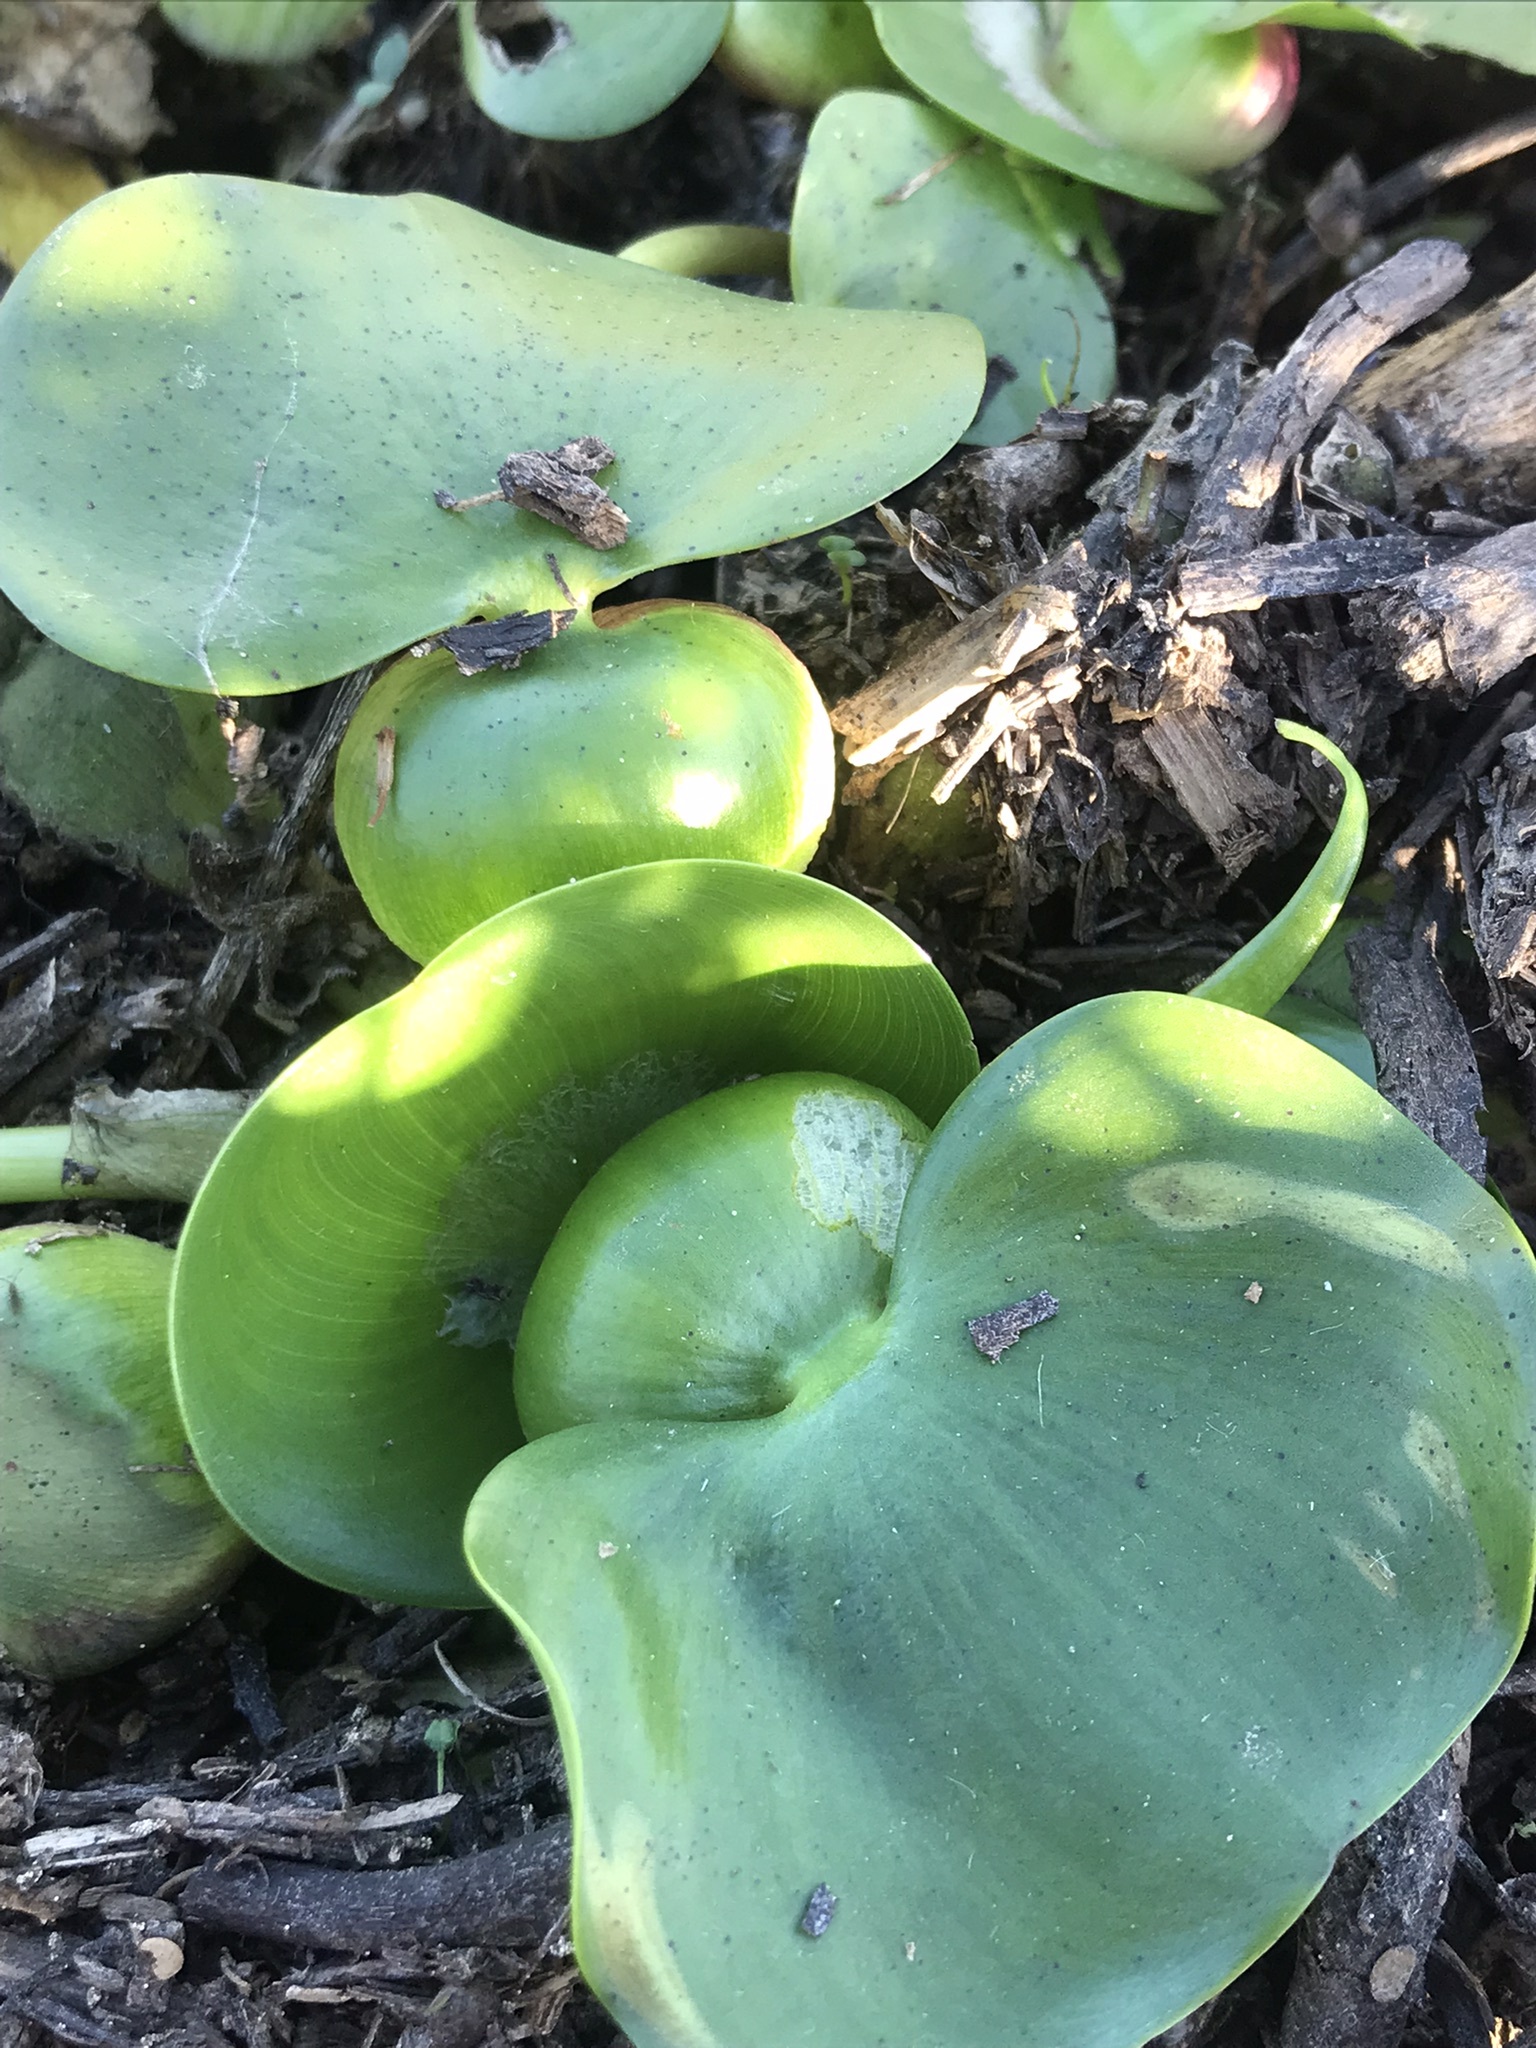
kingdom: Plantae
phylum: Tracheophyta
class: Liliopsida
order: Alismatales
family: Araceae
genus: Pistia
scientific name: Pistia stratiotes
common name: Water lettuce
